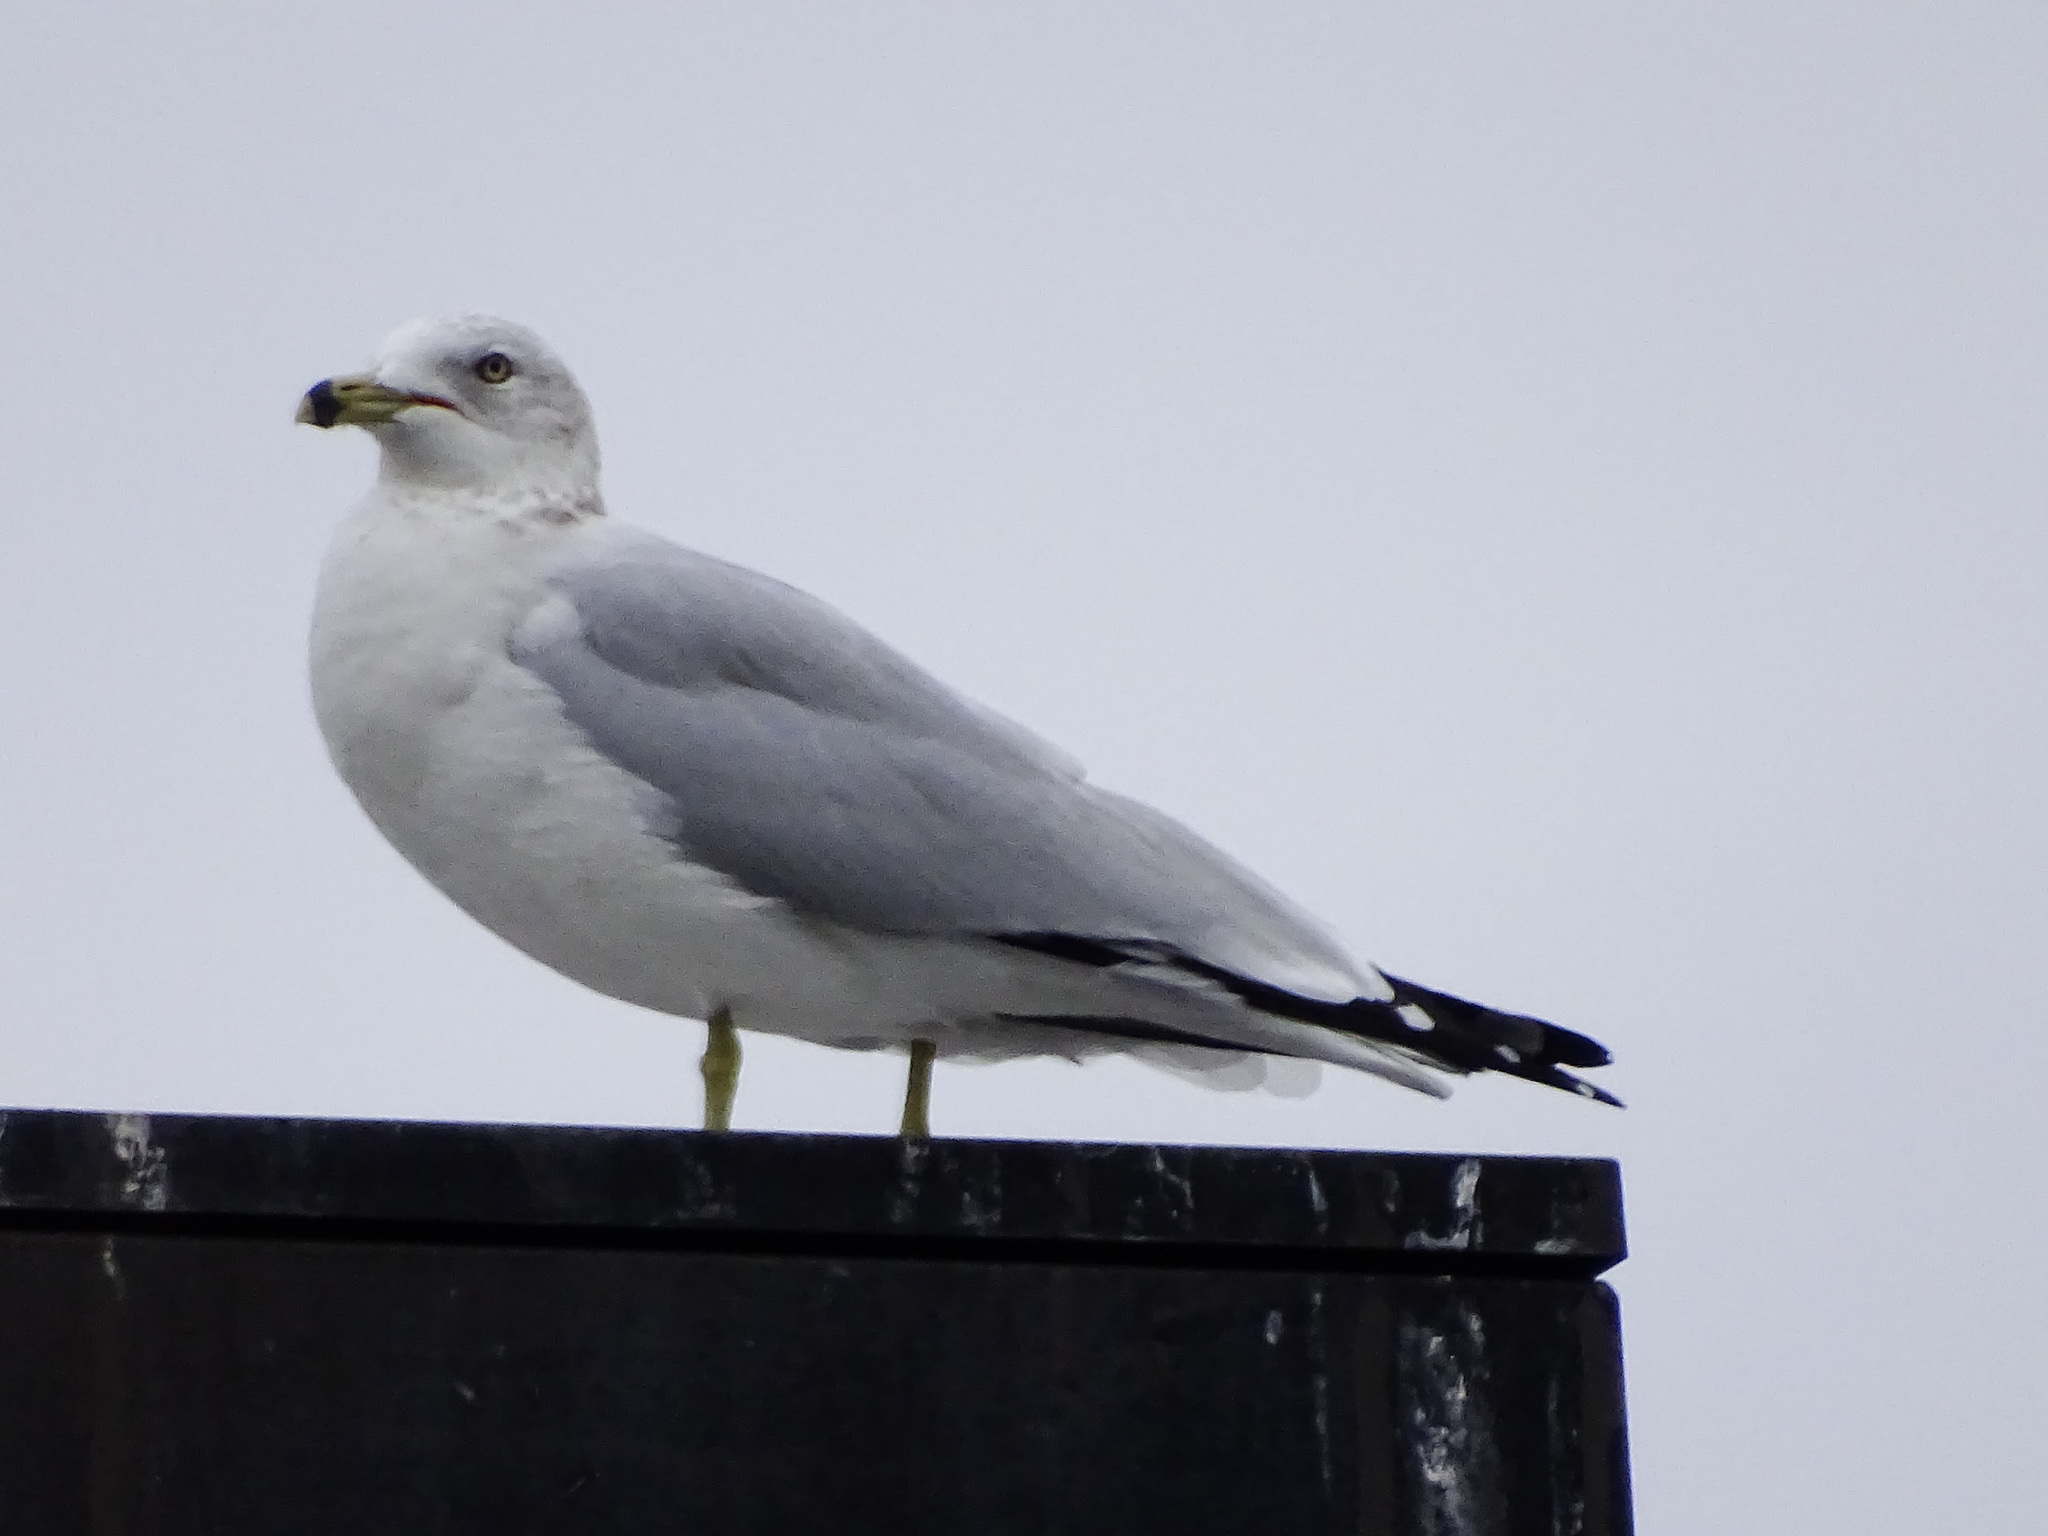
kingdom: Animalia
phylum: Chordata
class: Aves
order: Charadriiformes
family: Laridae
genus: Larus
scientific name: Larus delawarensis
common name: Ring-billed gull
